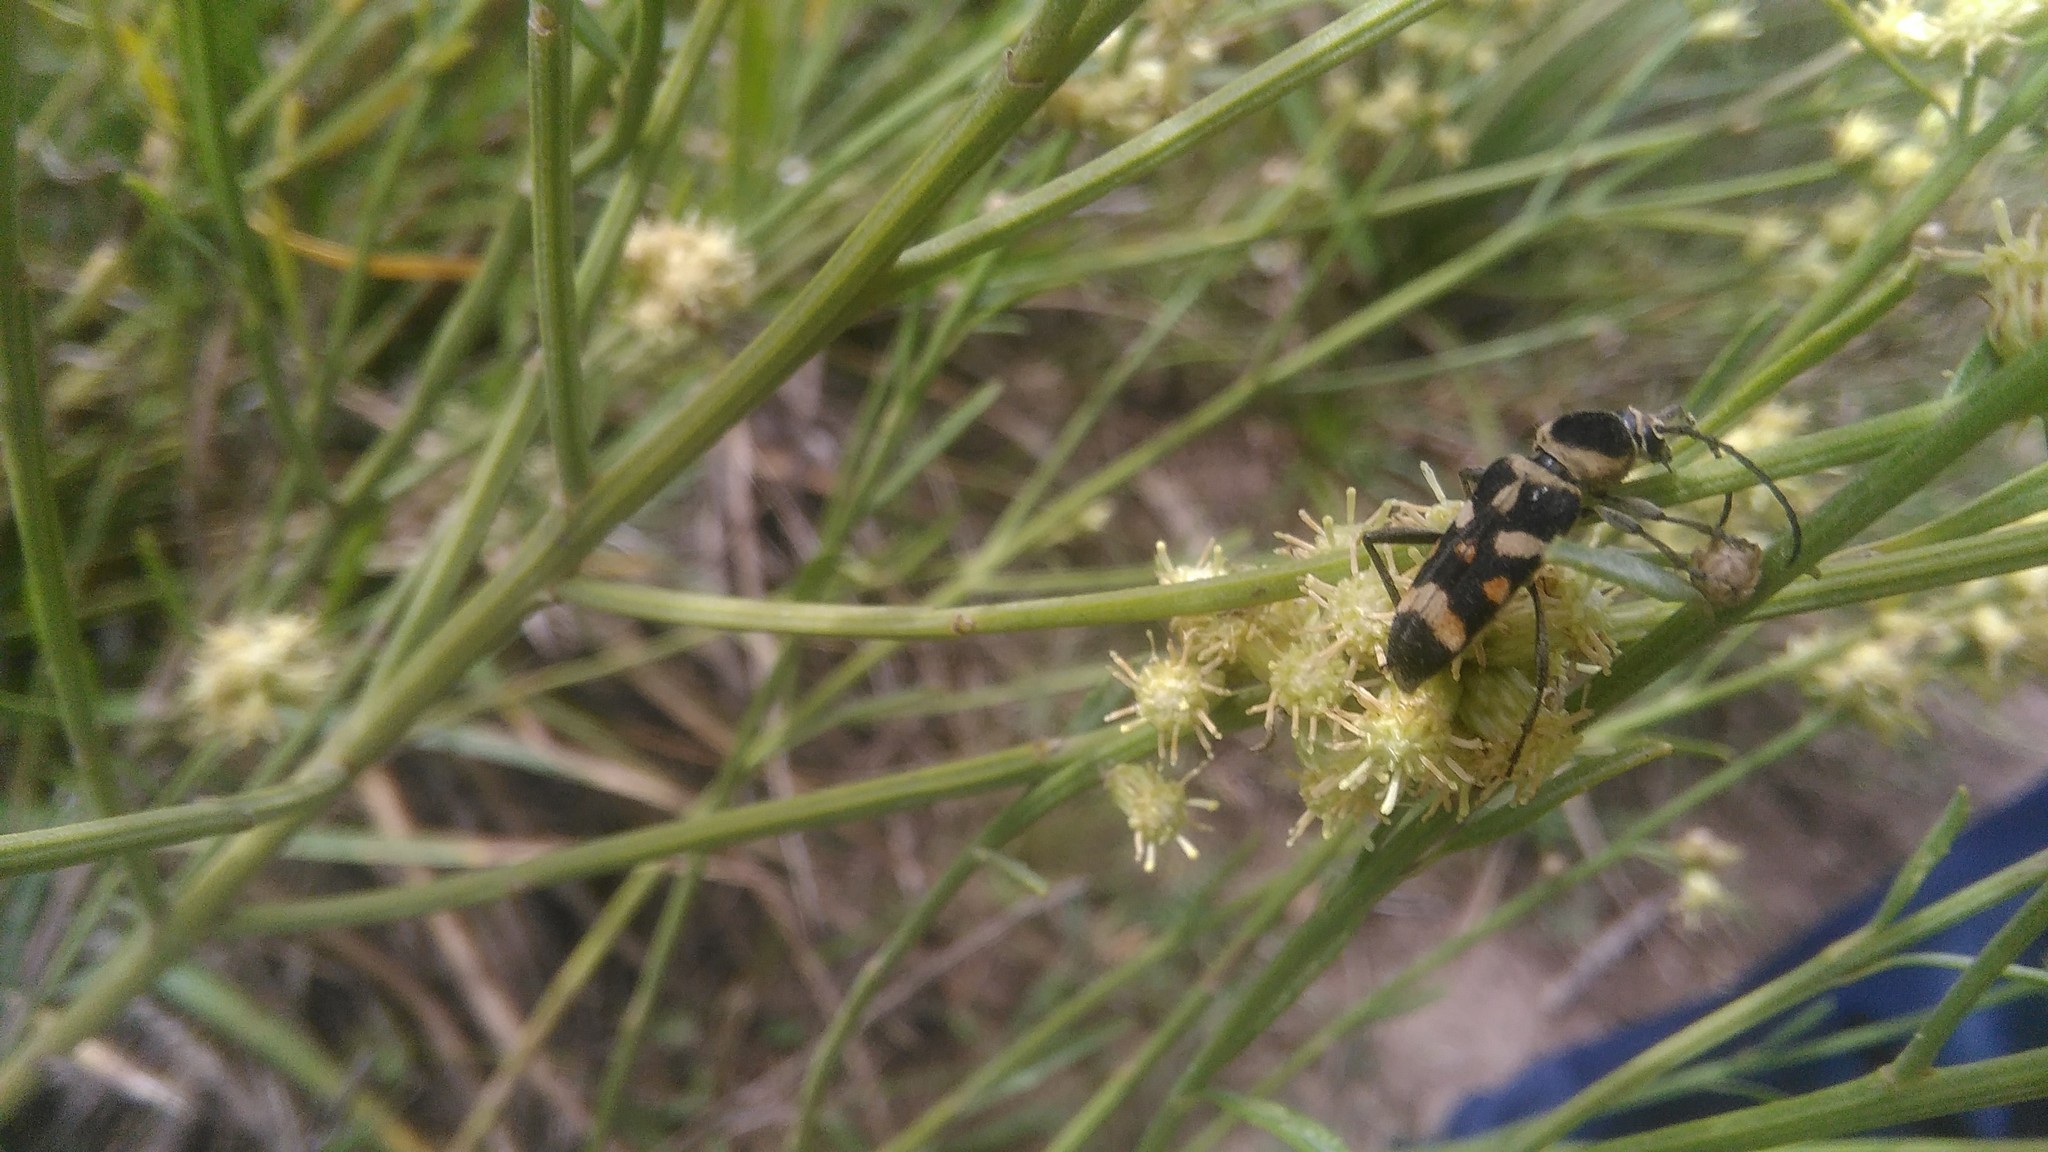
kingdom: Animalia
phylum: Arthropoda
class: Insecta
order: Coleoptera
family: Cerambycidae
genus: Megacyllene
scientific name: Megacyllene mellyi
